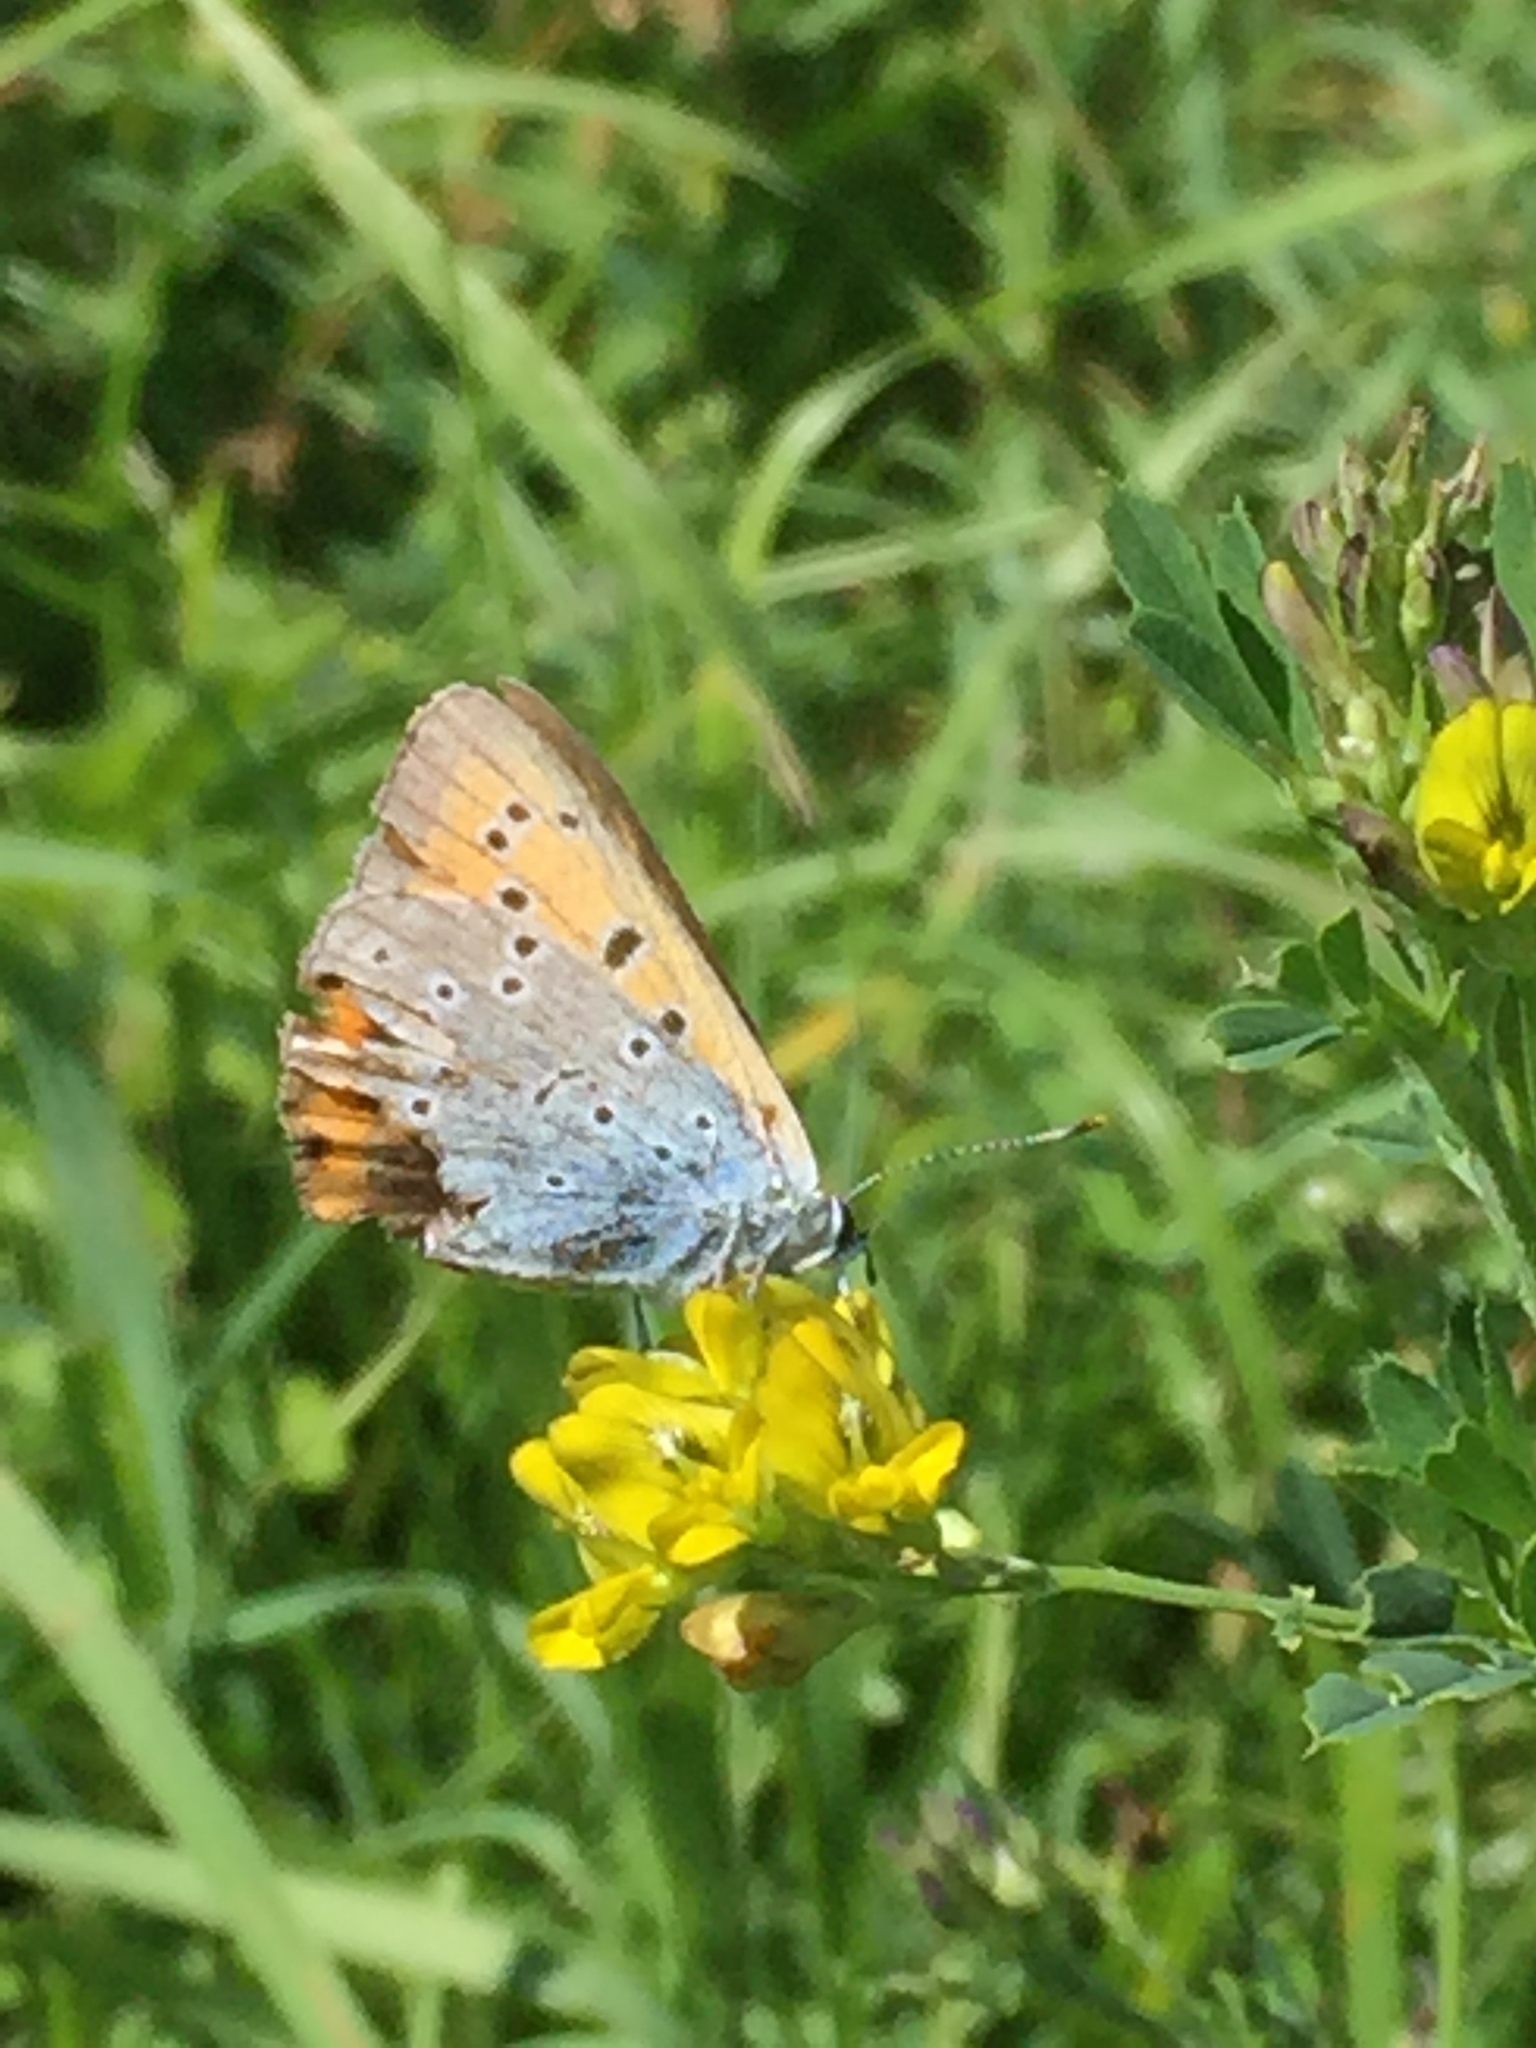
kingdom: Animalia
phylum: Arthropoda
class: Insecta
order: Lepidoptera
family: Lycaenidae
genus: Lycaena
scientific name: Lycaena dispar
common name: Large copper
